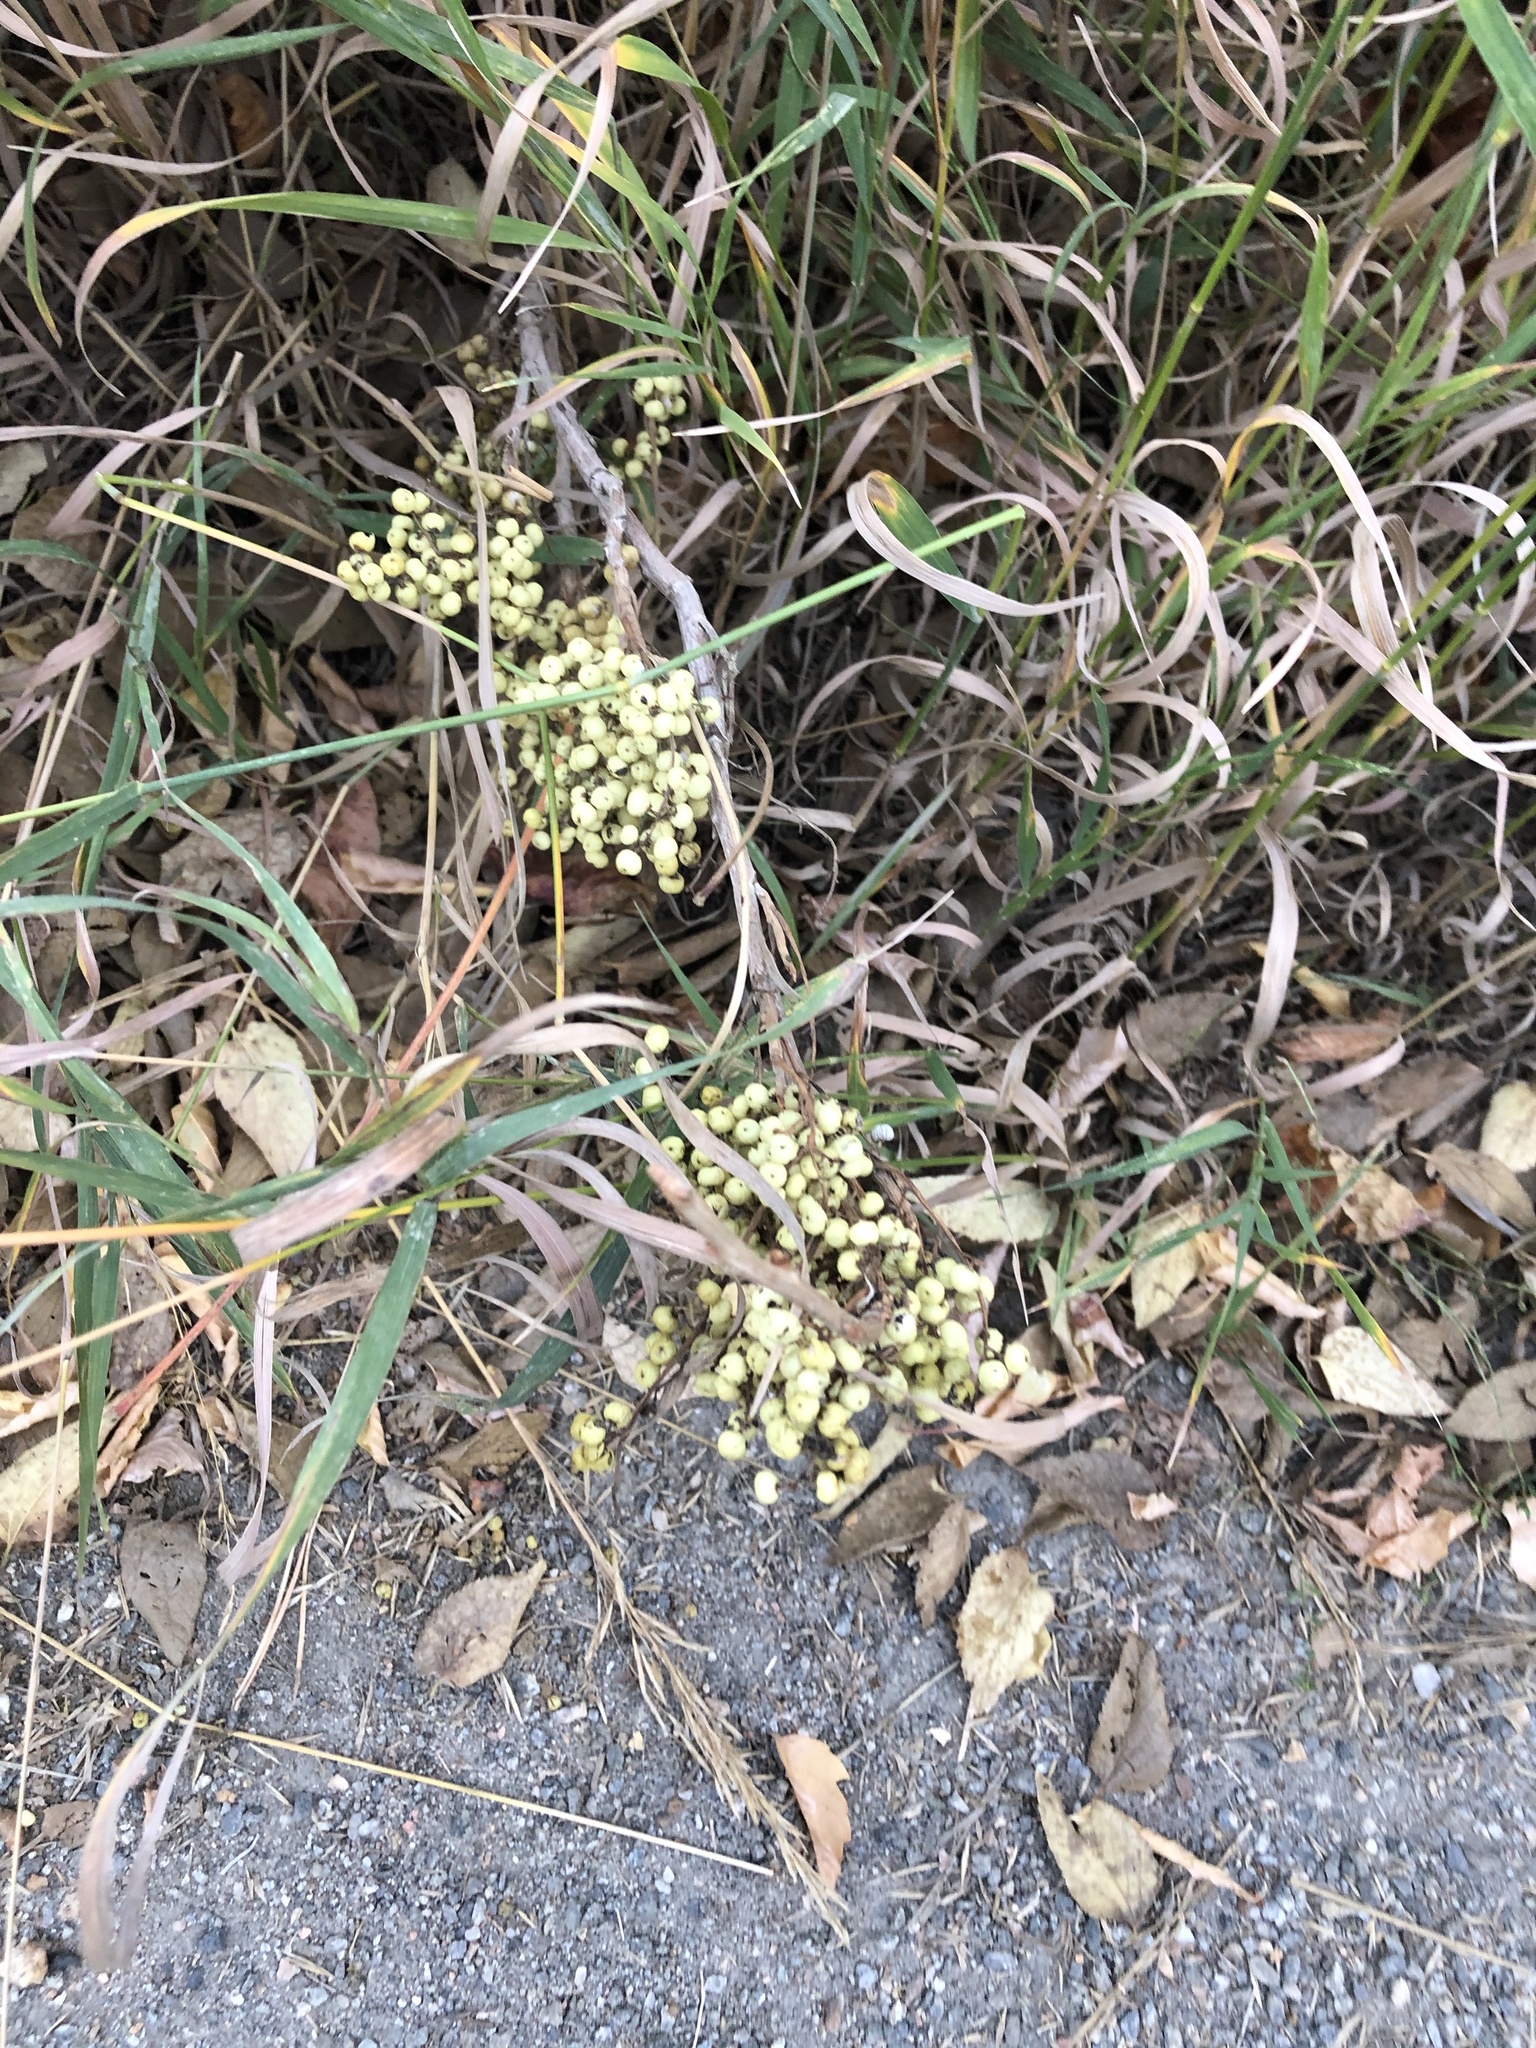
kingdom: Plantae
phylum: Tracheophyta
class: Magnoliopsida
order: Sapindales
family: Anacardiaceae
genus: Toxicodendron
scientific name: Toxicodendron rydbergii
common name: Rydberg's poison-ivy
